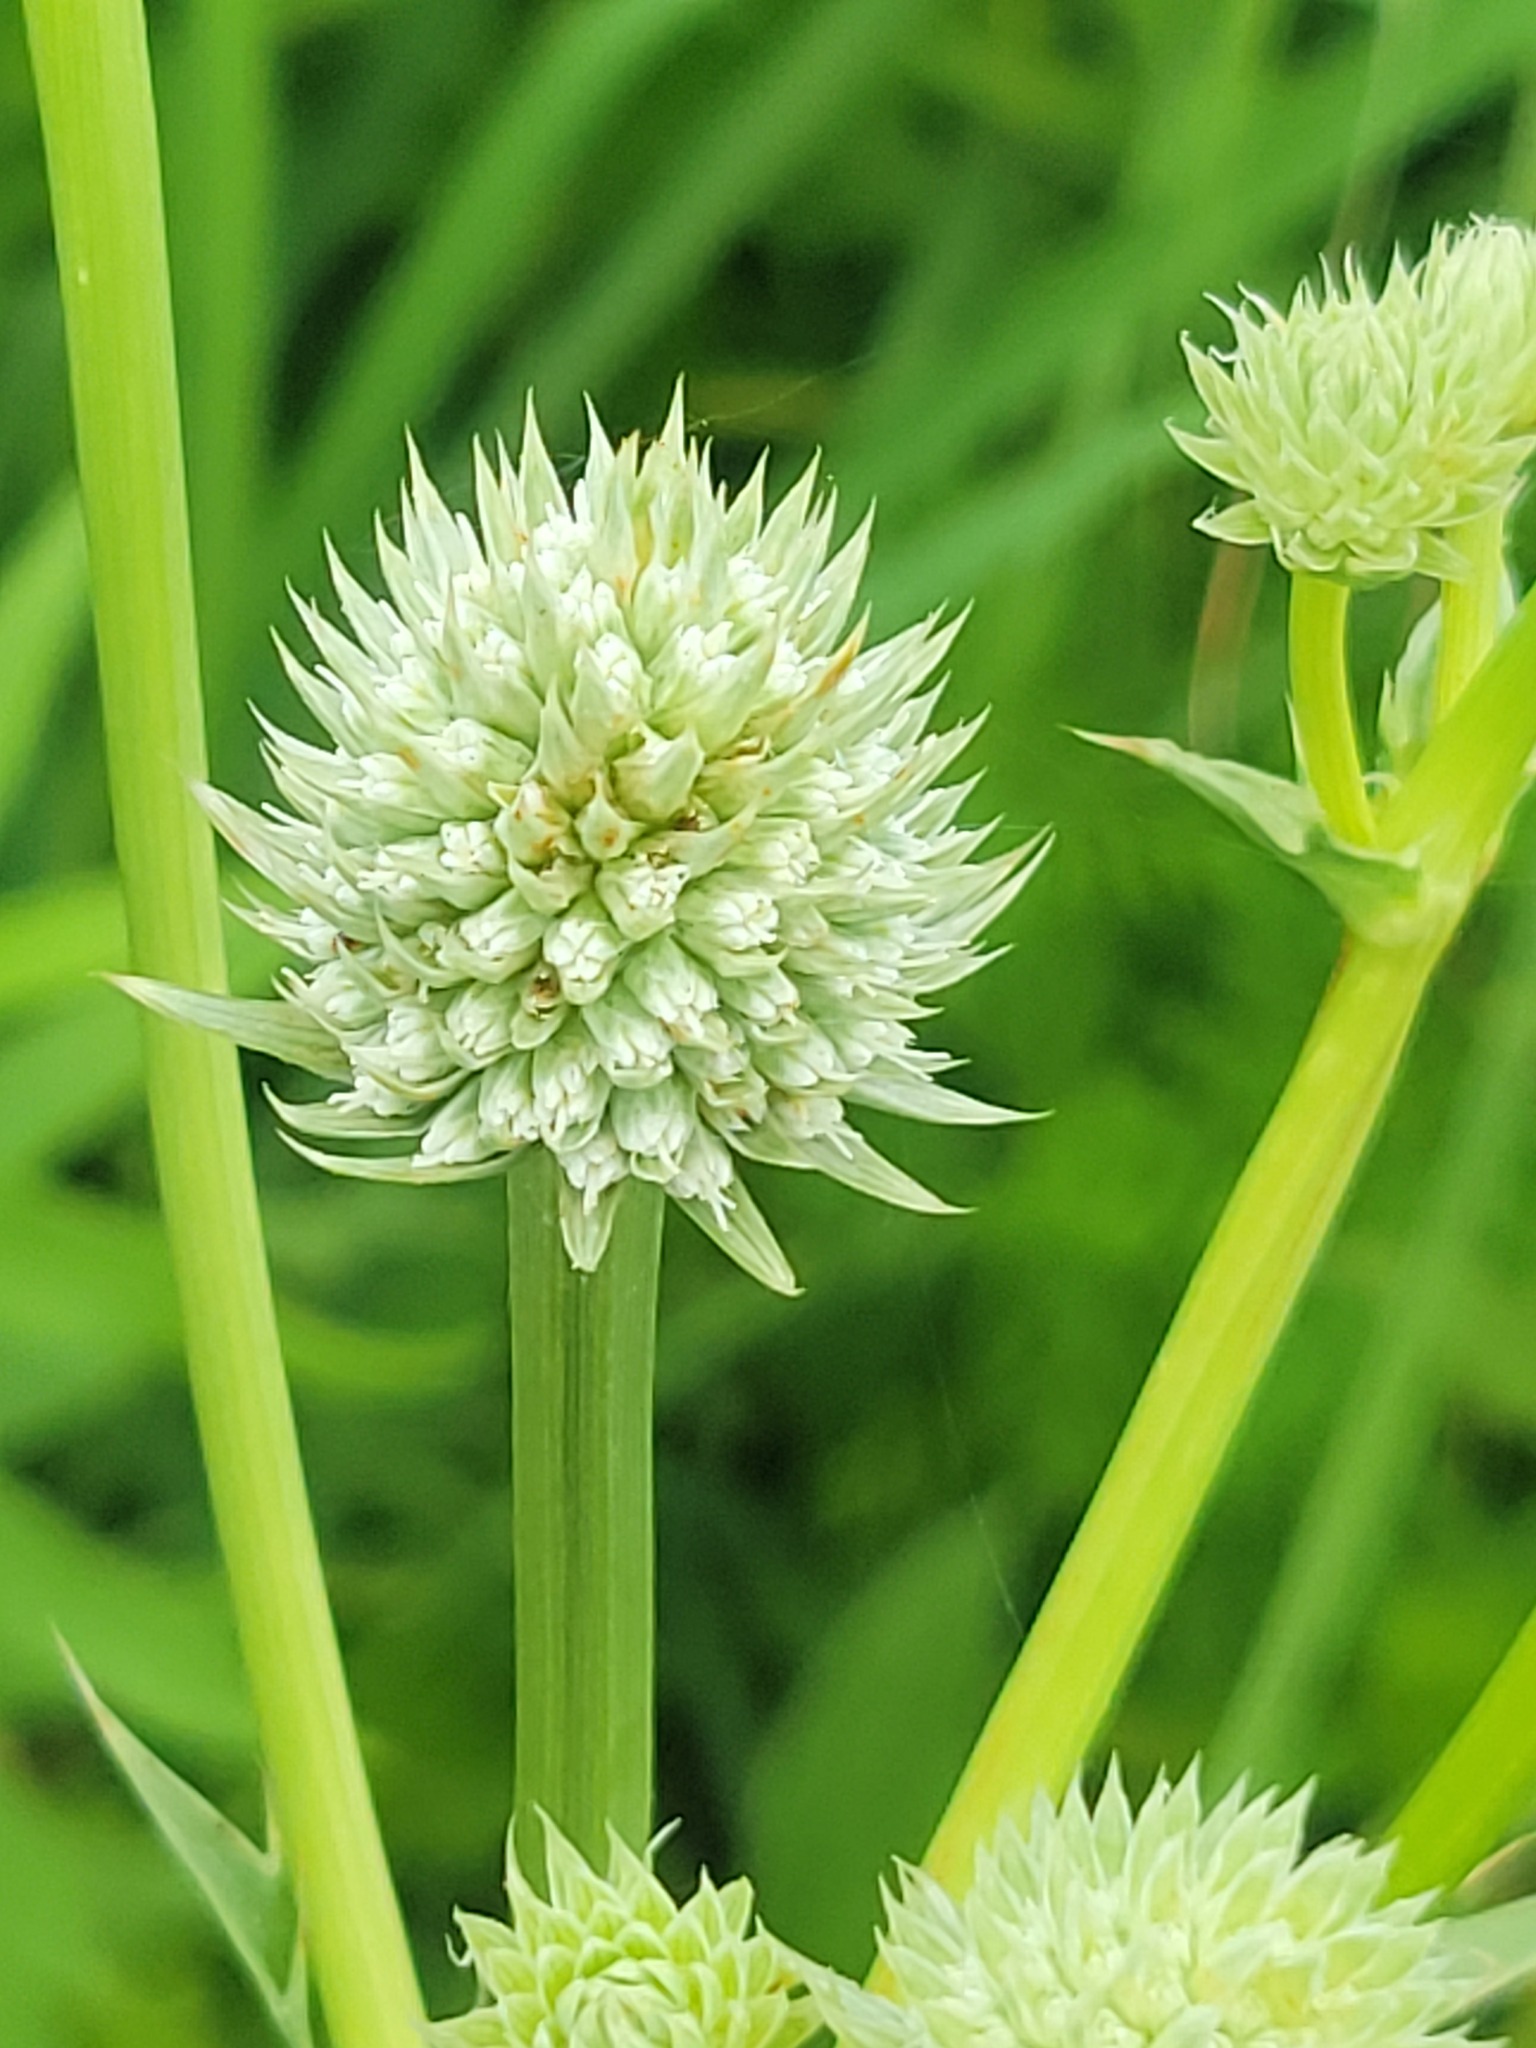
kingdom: Plantae
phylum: Tracheophyta
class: Magnoliopsida
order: Apiales
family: Apiaceae
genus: Eryngium
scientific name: Eryngium yuccifolium
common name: Button eryngo
